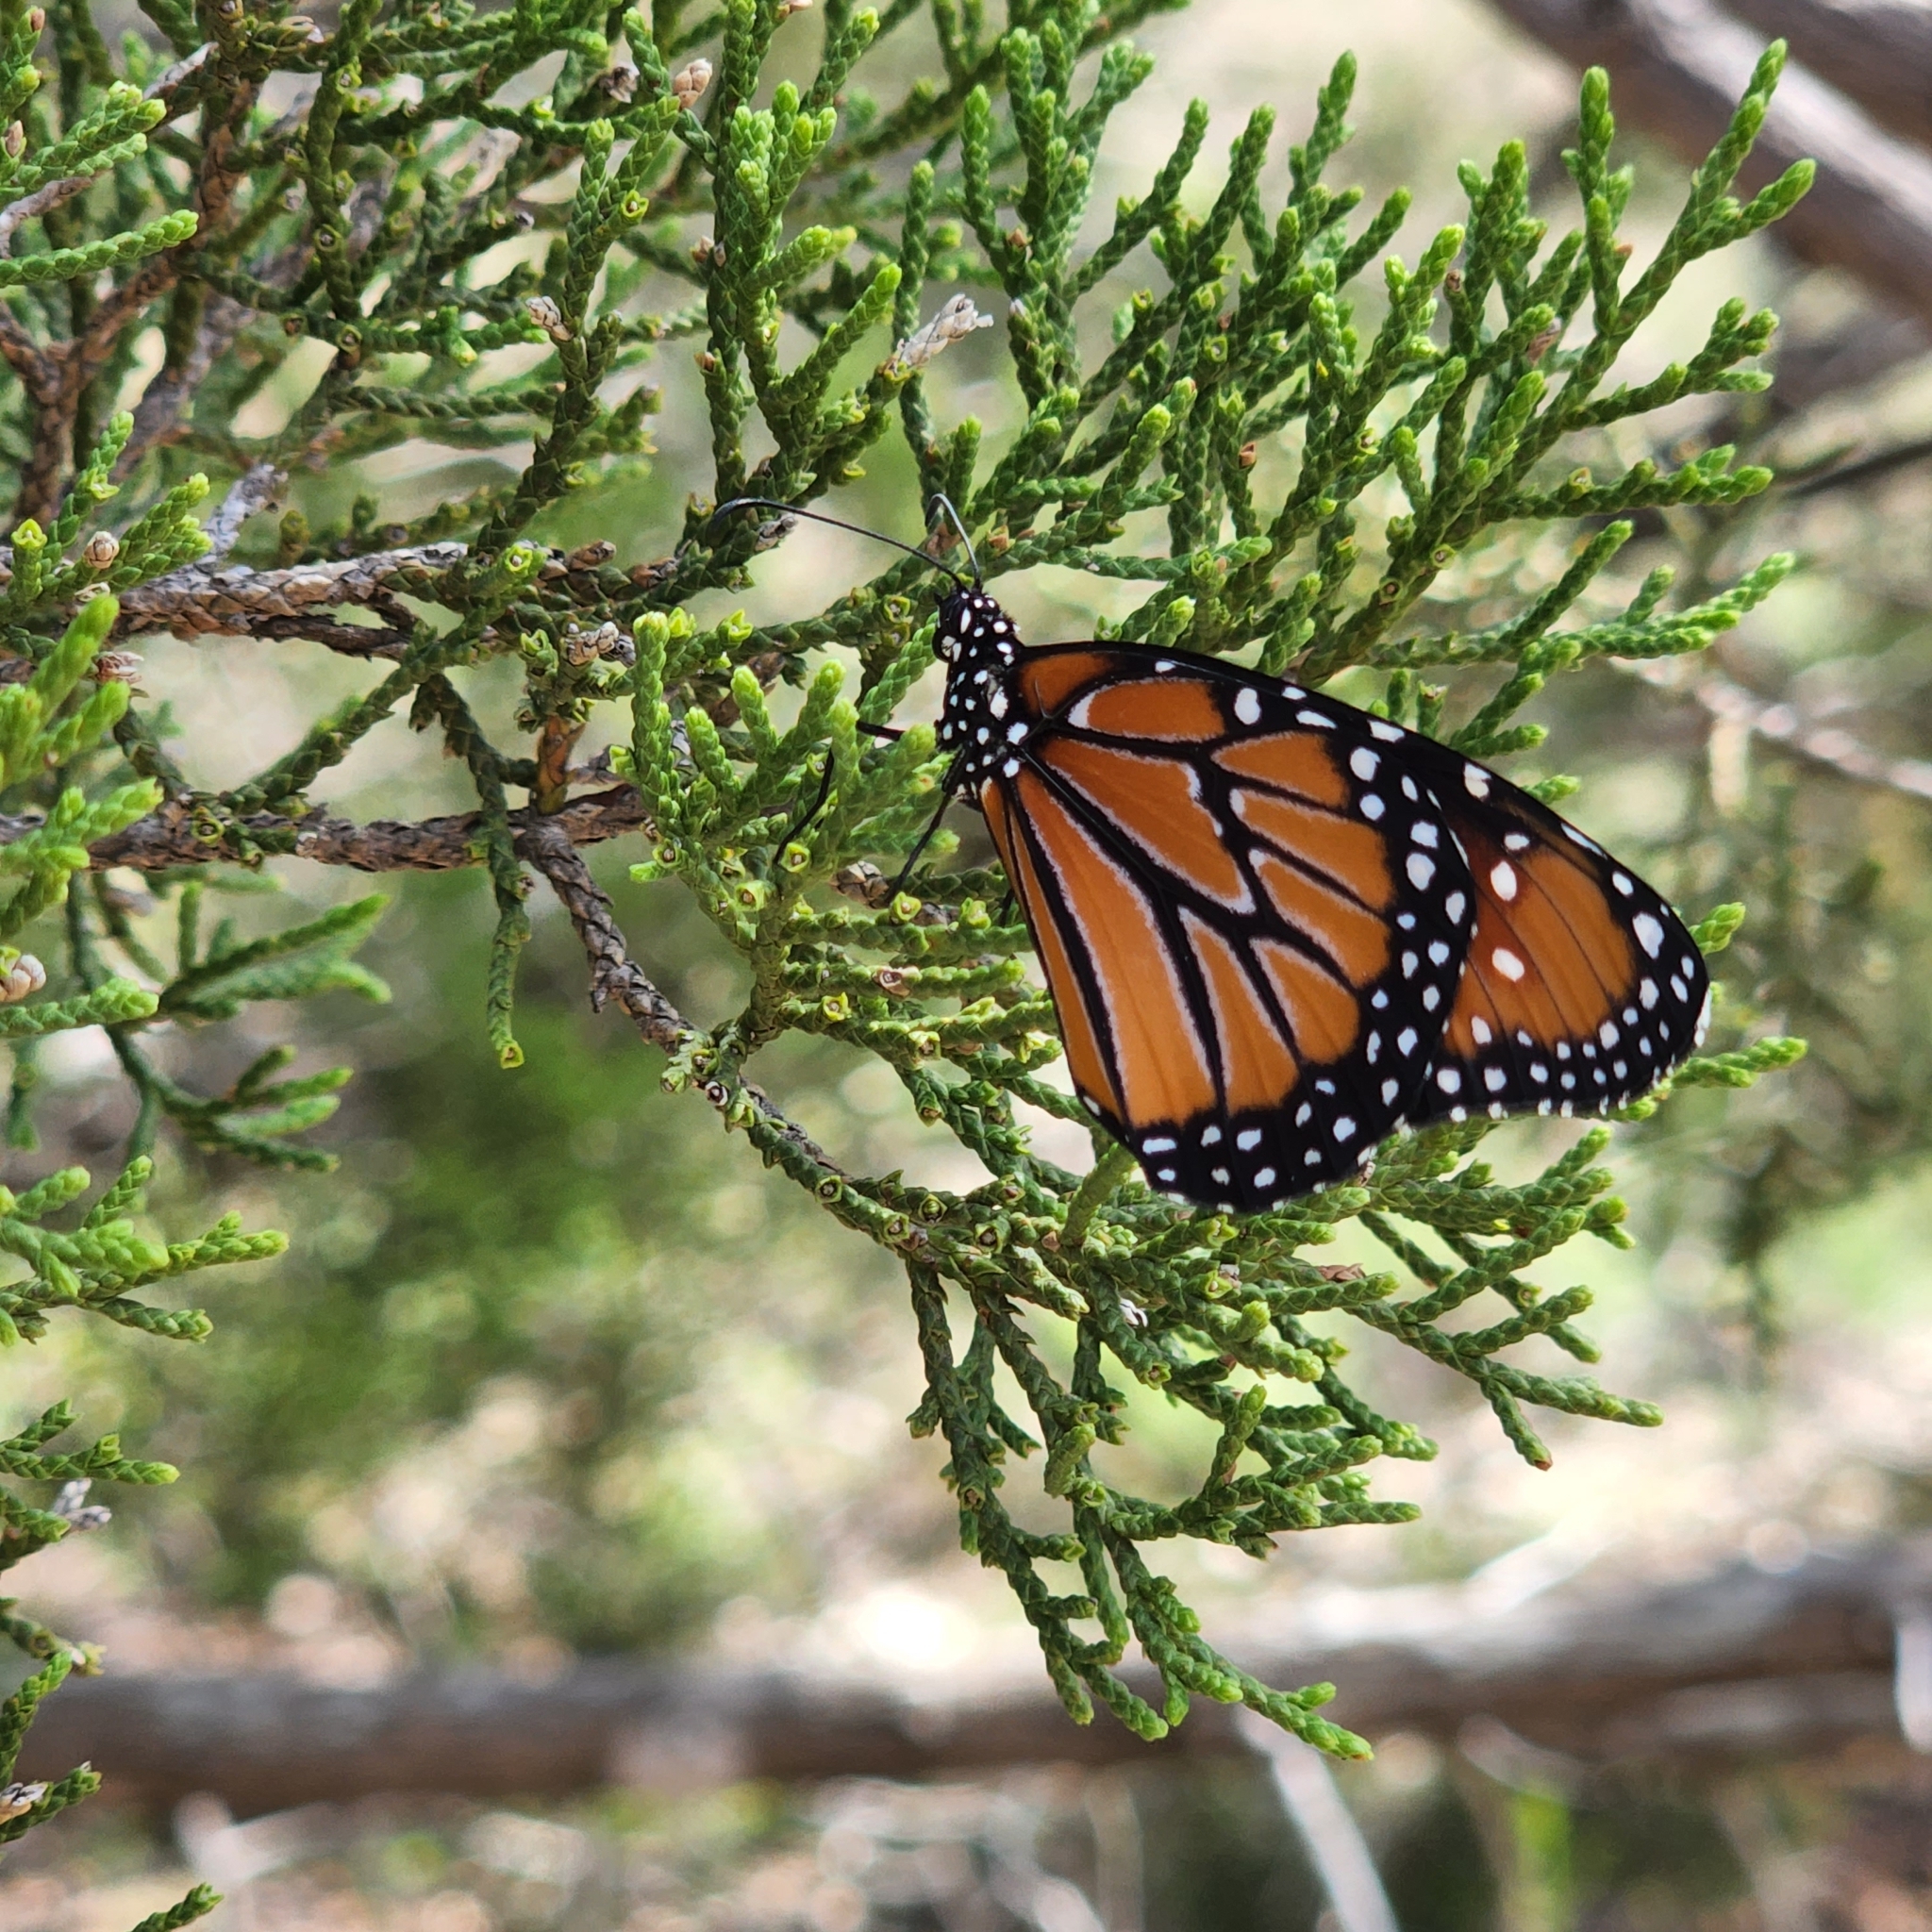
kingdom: Animalia
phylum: Arthropoda
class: Insecta
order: Lepidoptera
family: Nymphalidae
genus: Danaus
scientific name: Danaus plexippus
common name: Monarch
